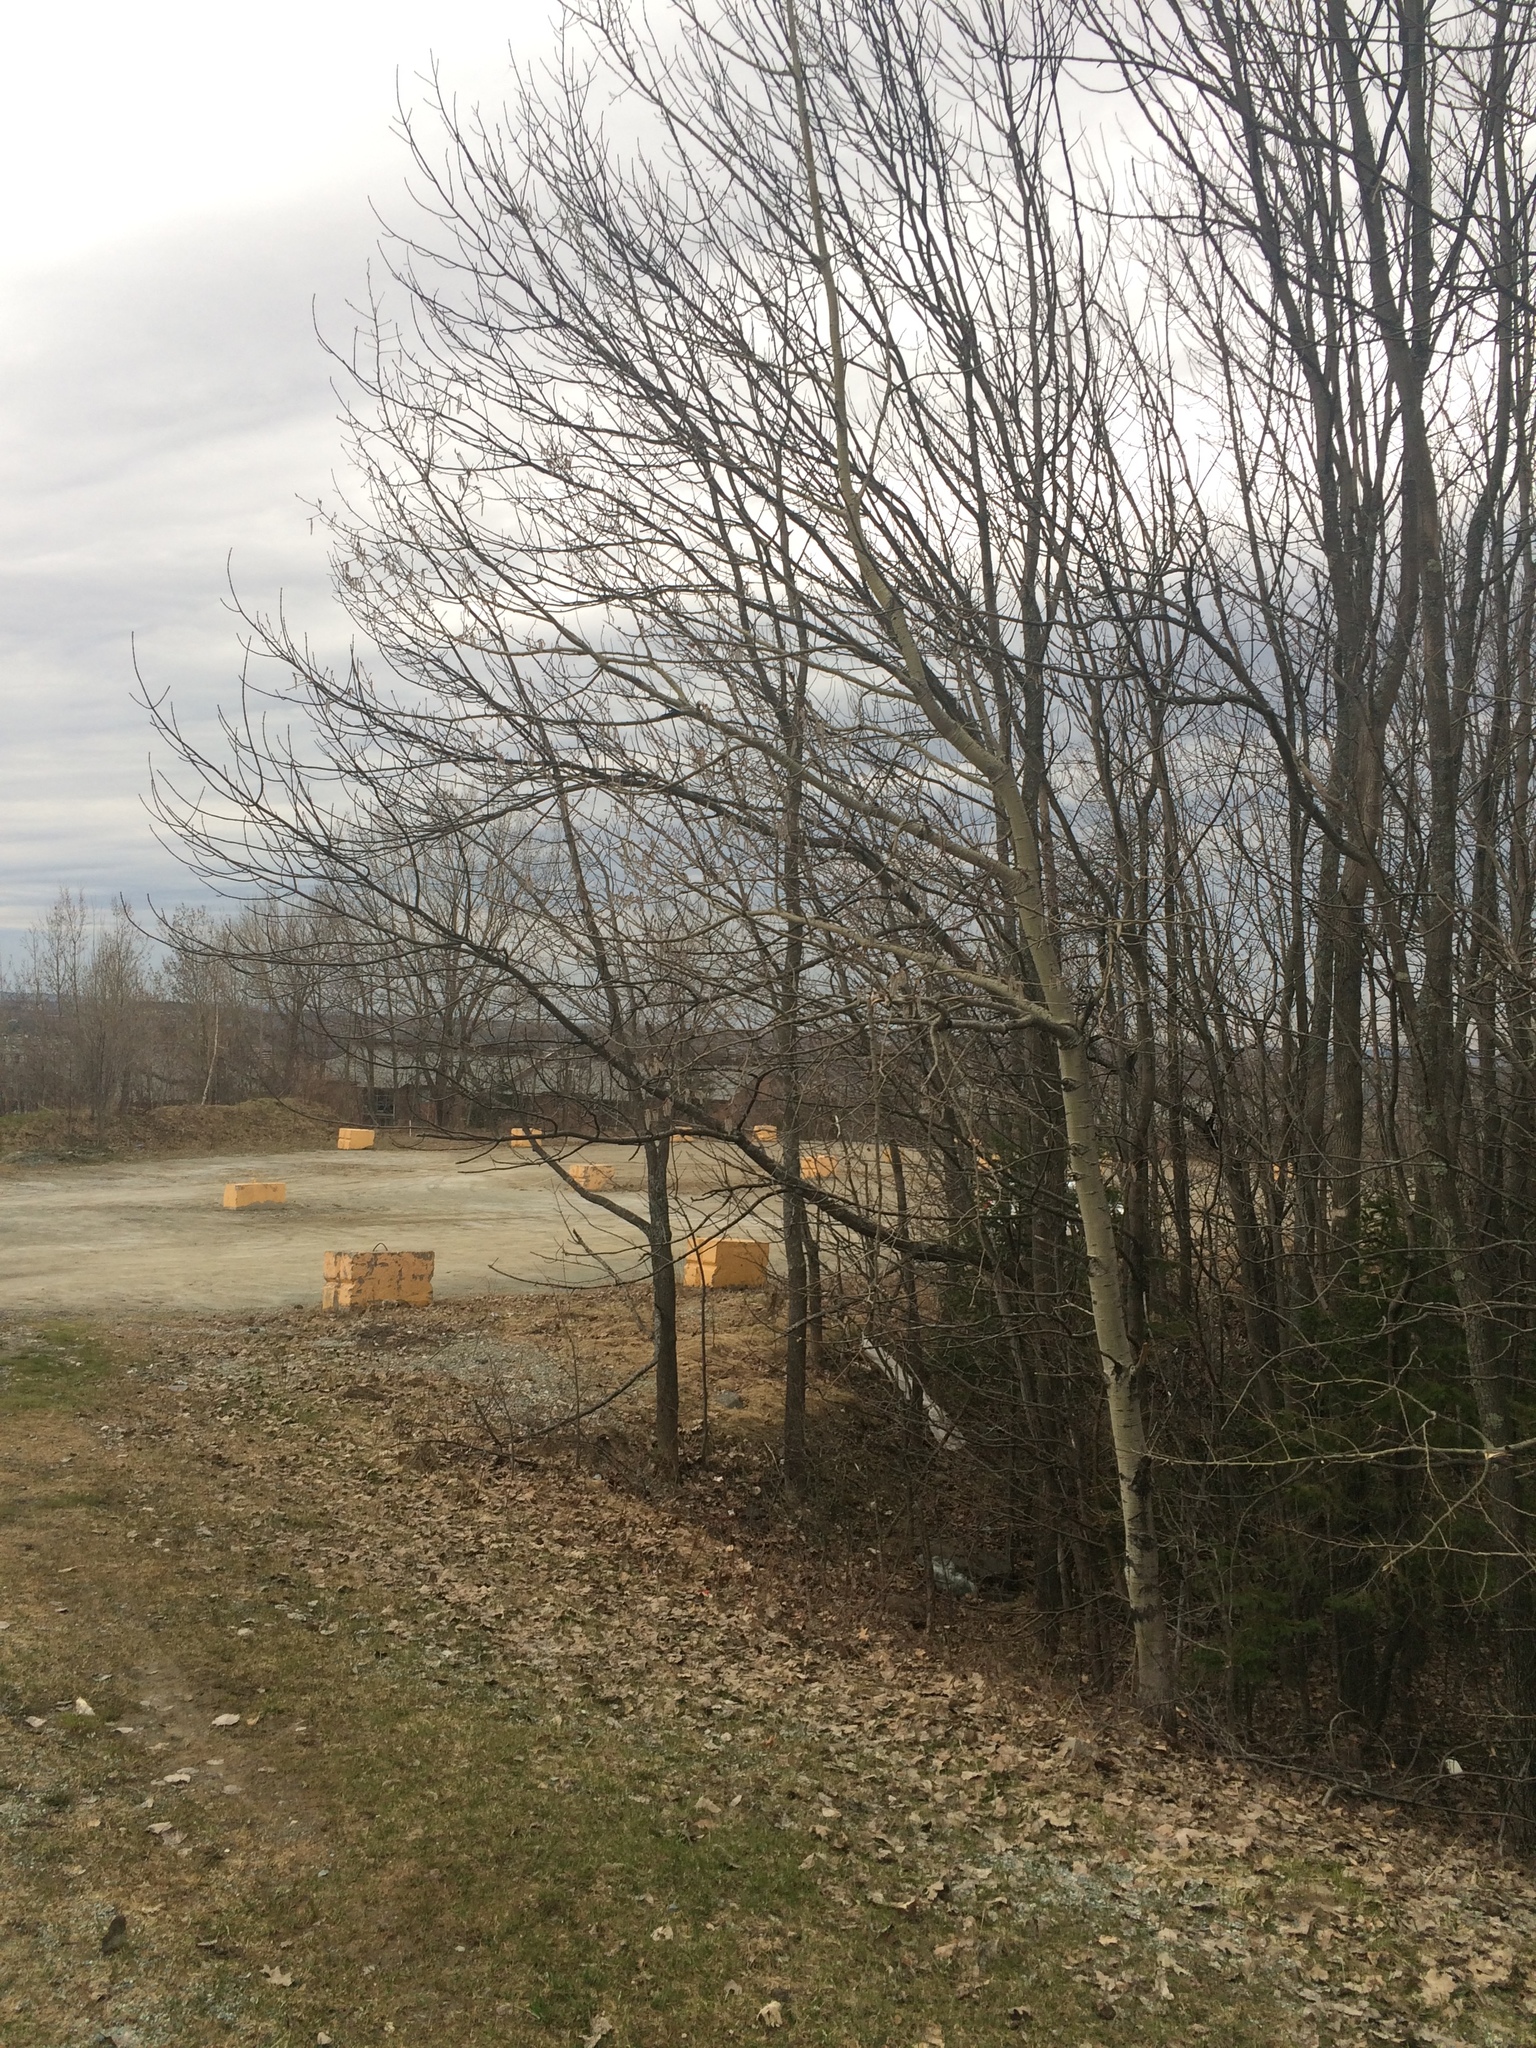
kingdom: Plantae
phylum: Tracheophyta
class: Magnoliopsida
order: Malpighiales
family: Salicaceae
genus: Populus
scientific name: Populus tremuloides
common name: Quaking aspen
